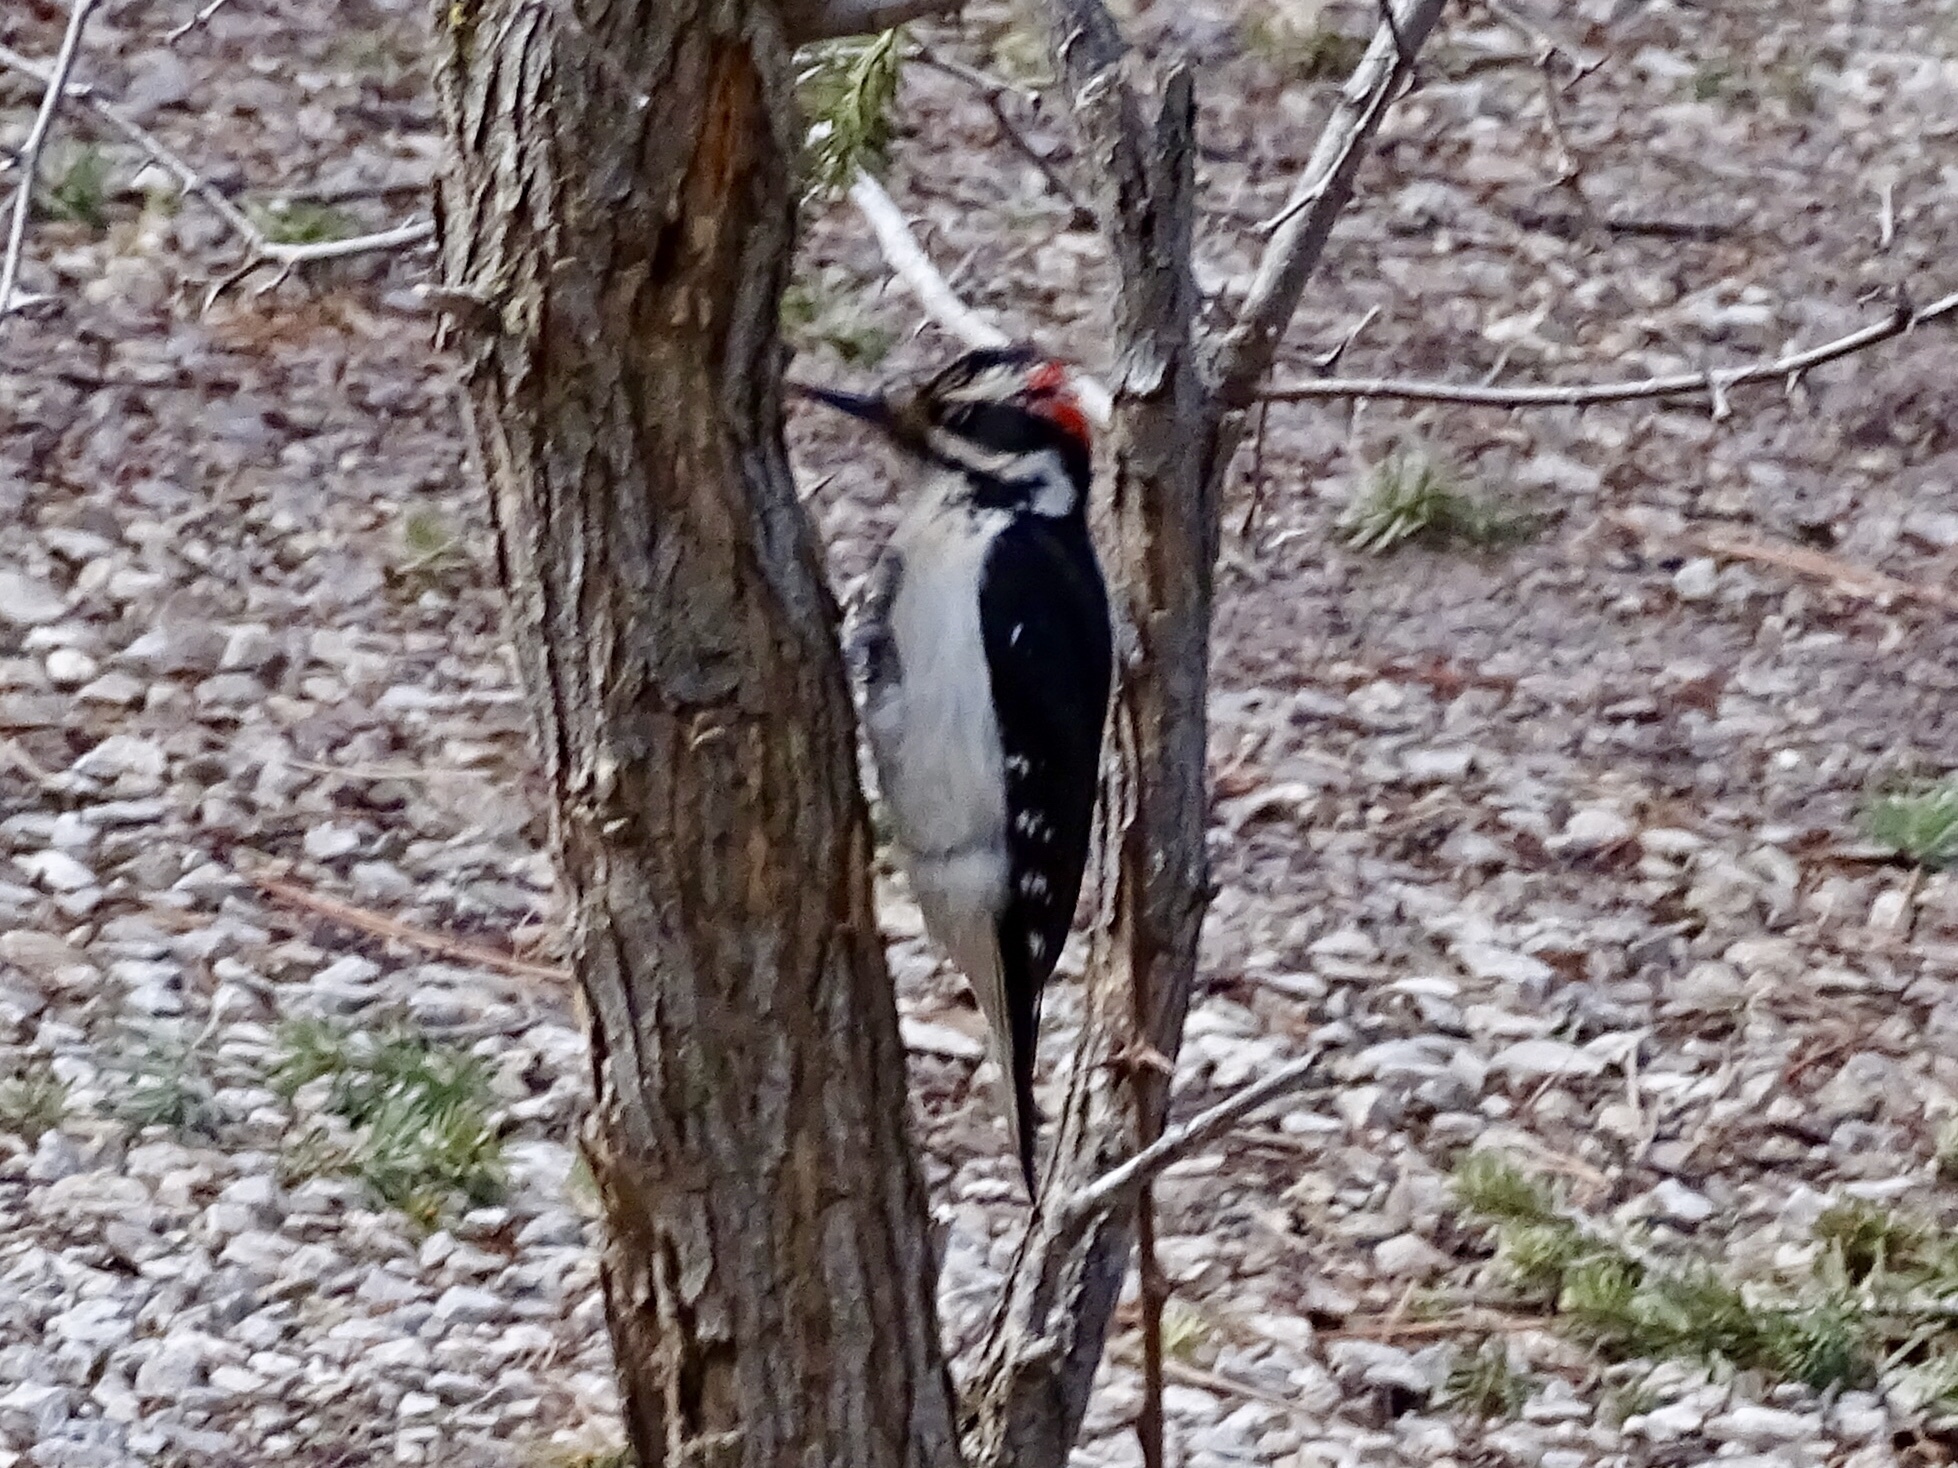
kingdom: Animalia
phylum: Chordata
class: Aves
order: Piciformes
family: Picidae
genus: Leuconotopicus
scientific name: Leuconotopicus villosus
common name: Hairy woodpecker
